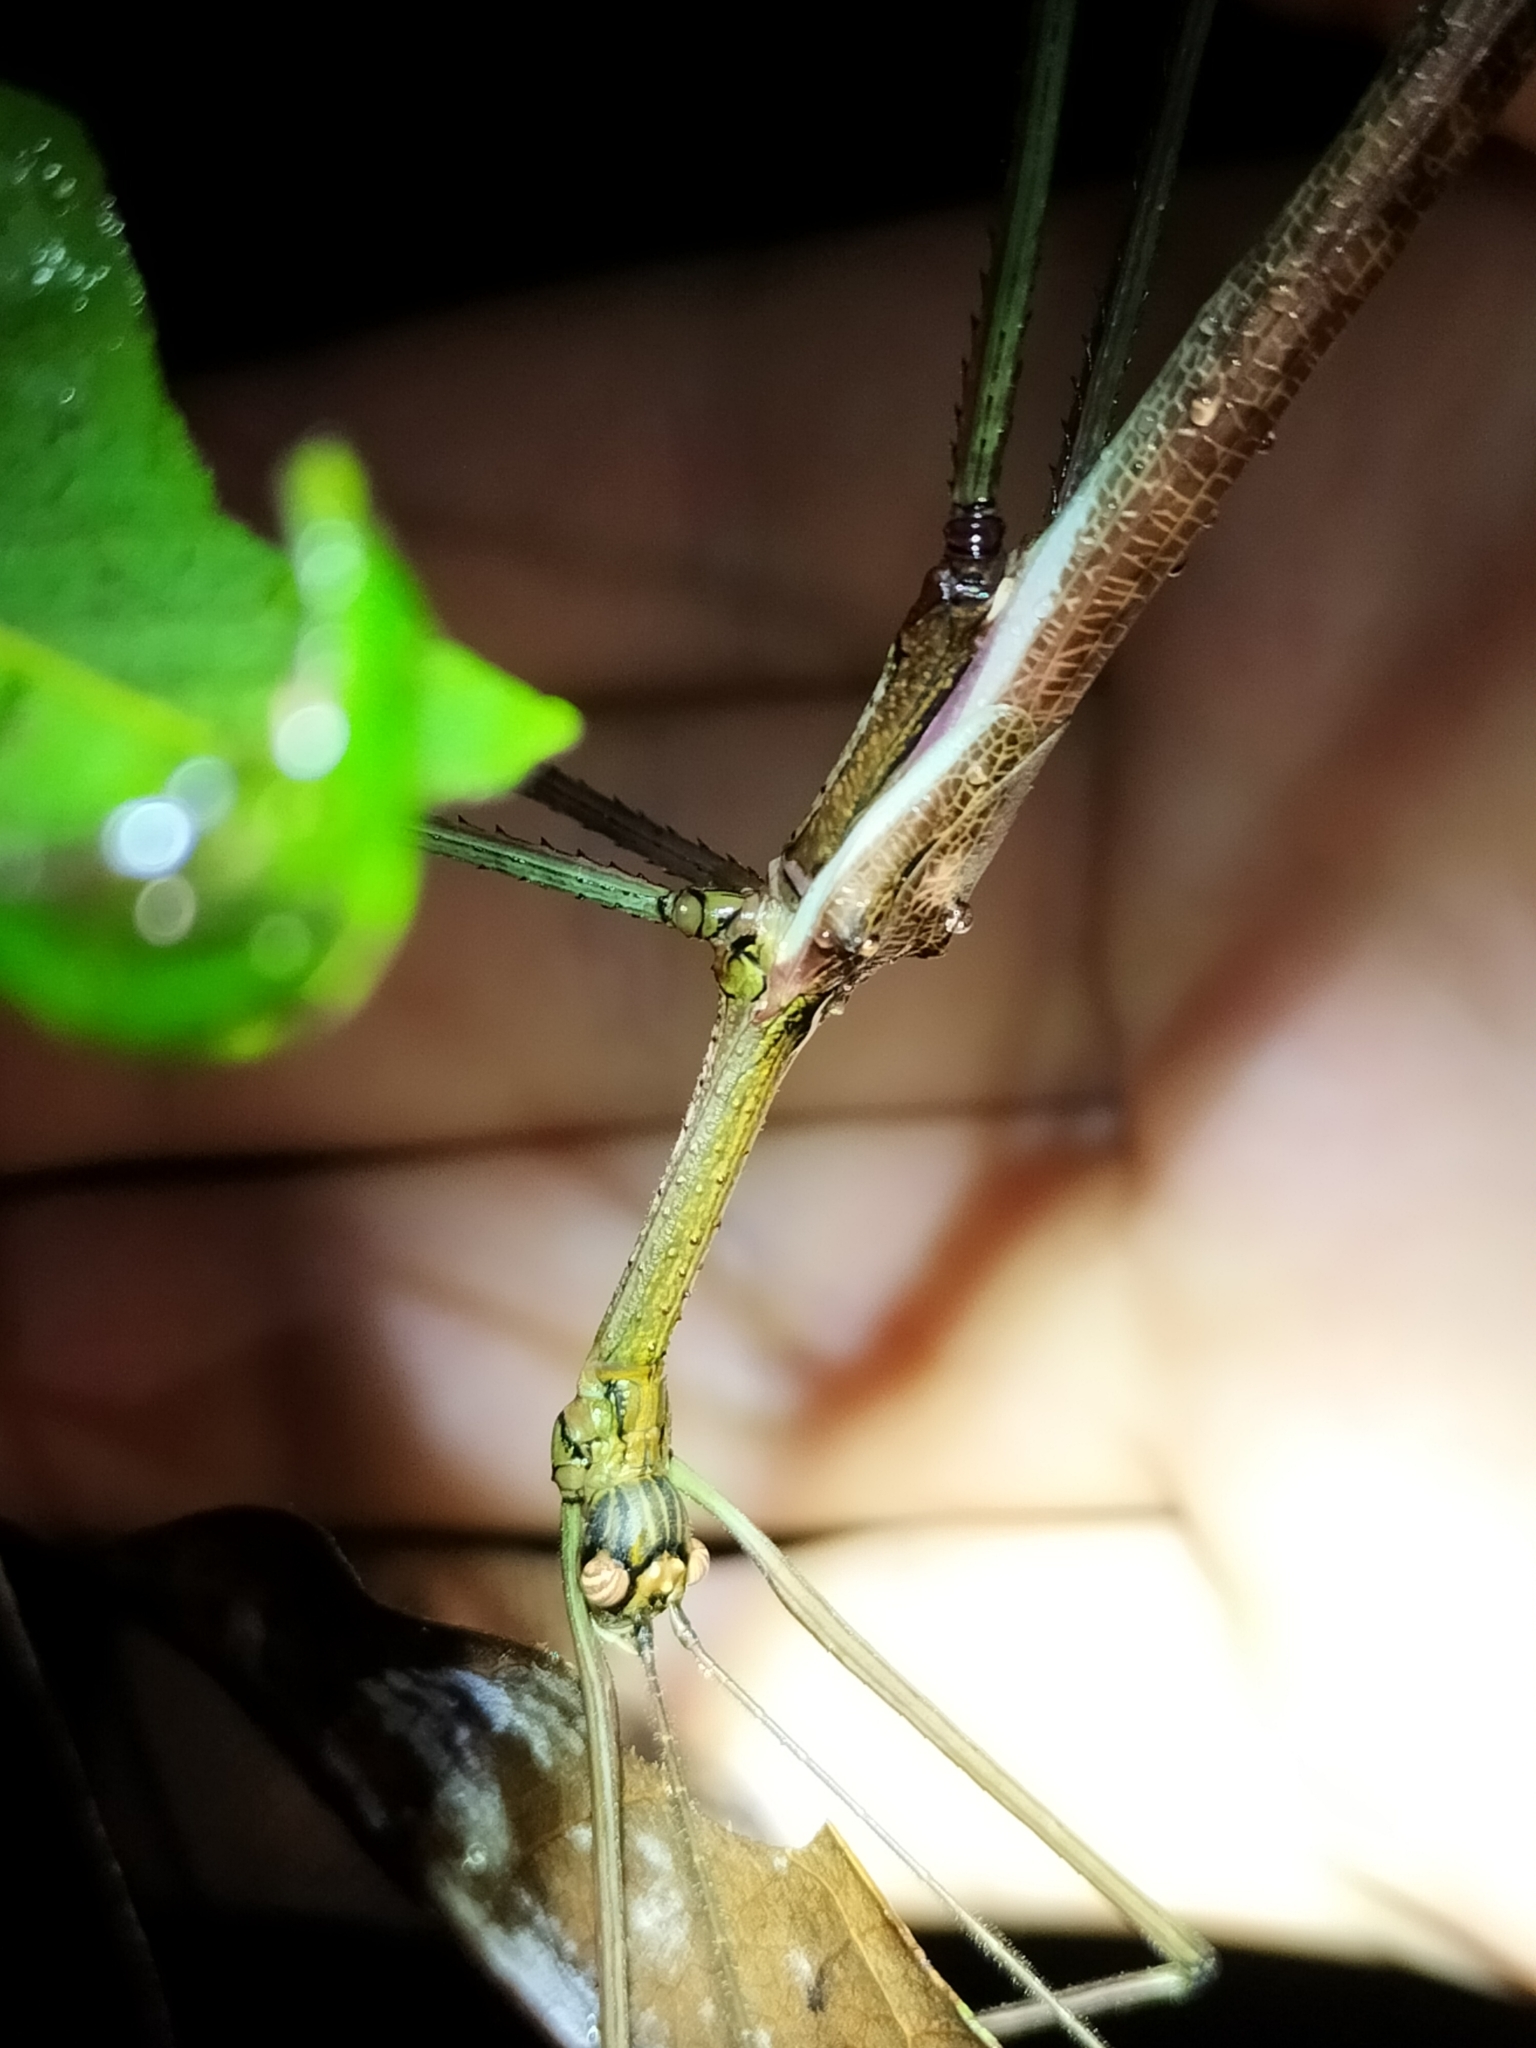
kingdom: Animalia
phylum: Arthropoda
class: Insecta
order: Phasmida
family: Phasmatidae
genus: Anchiale
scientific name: Anchiale briareus
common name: Strong stick insect
